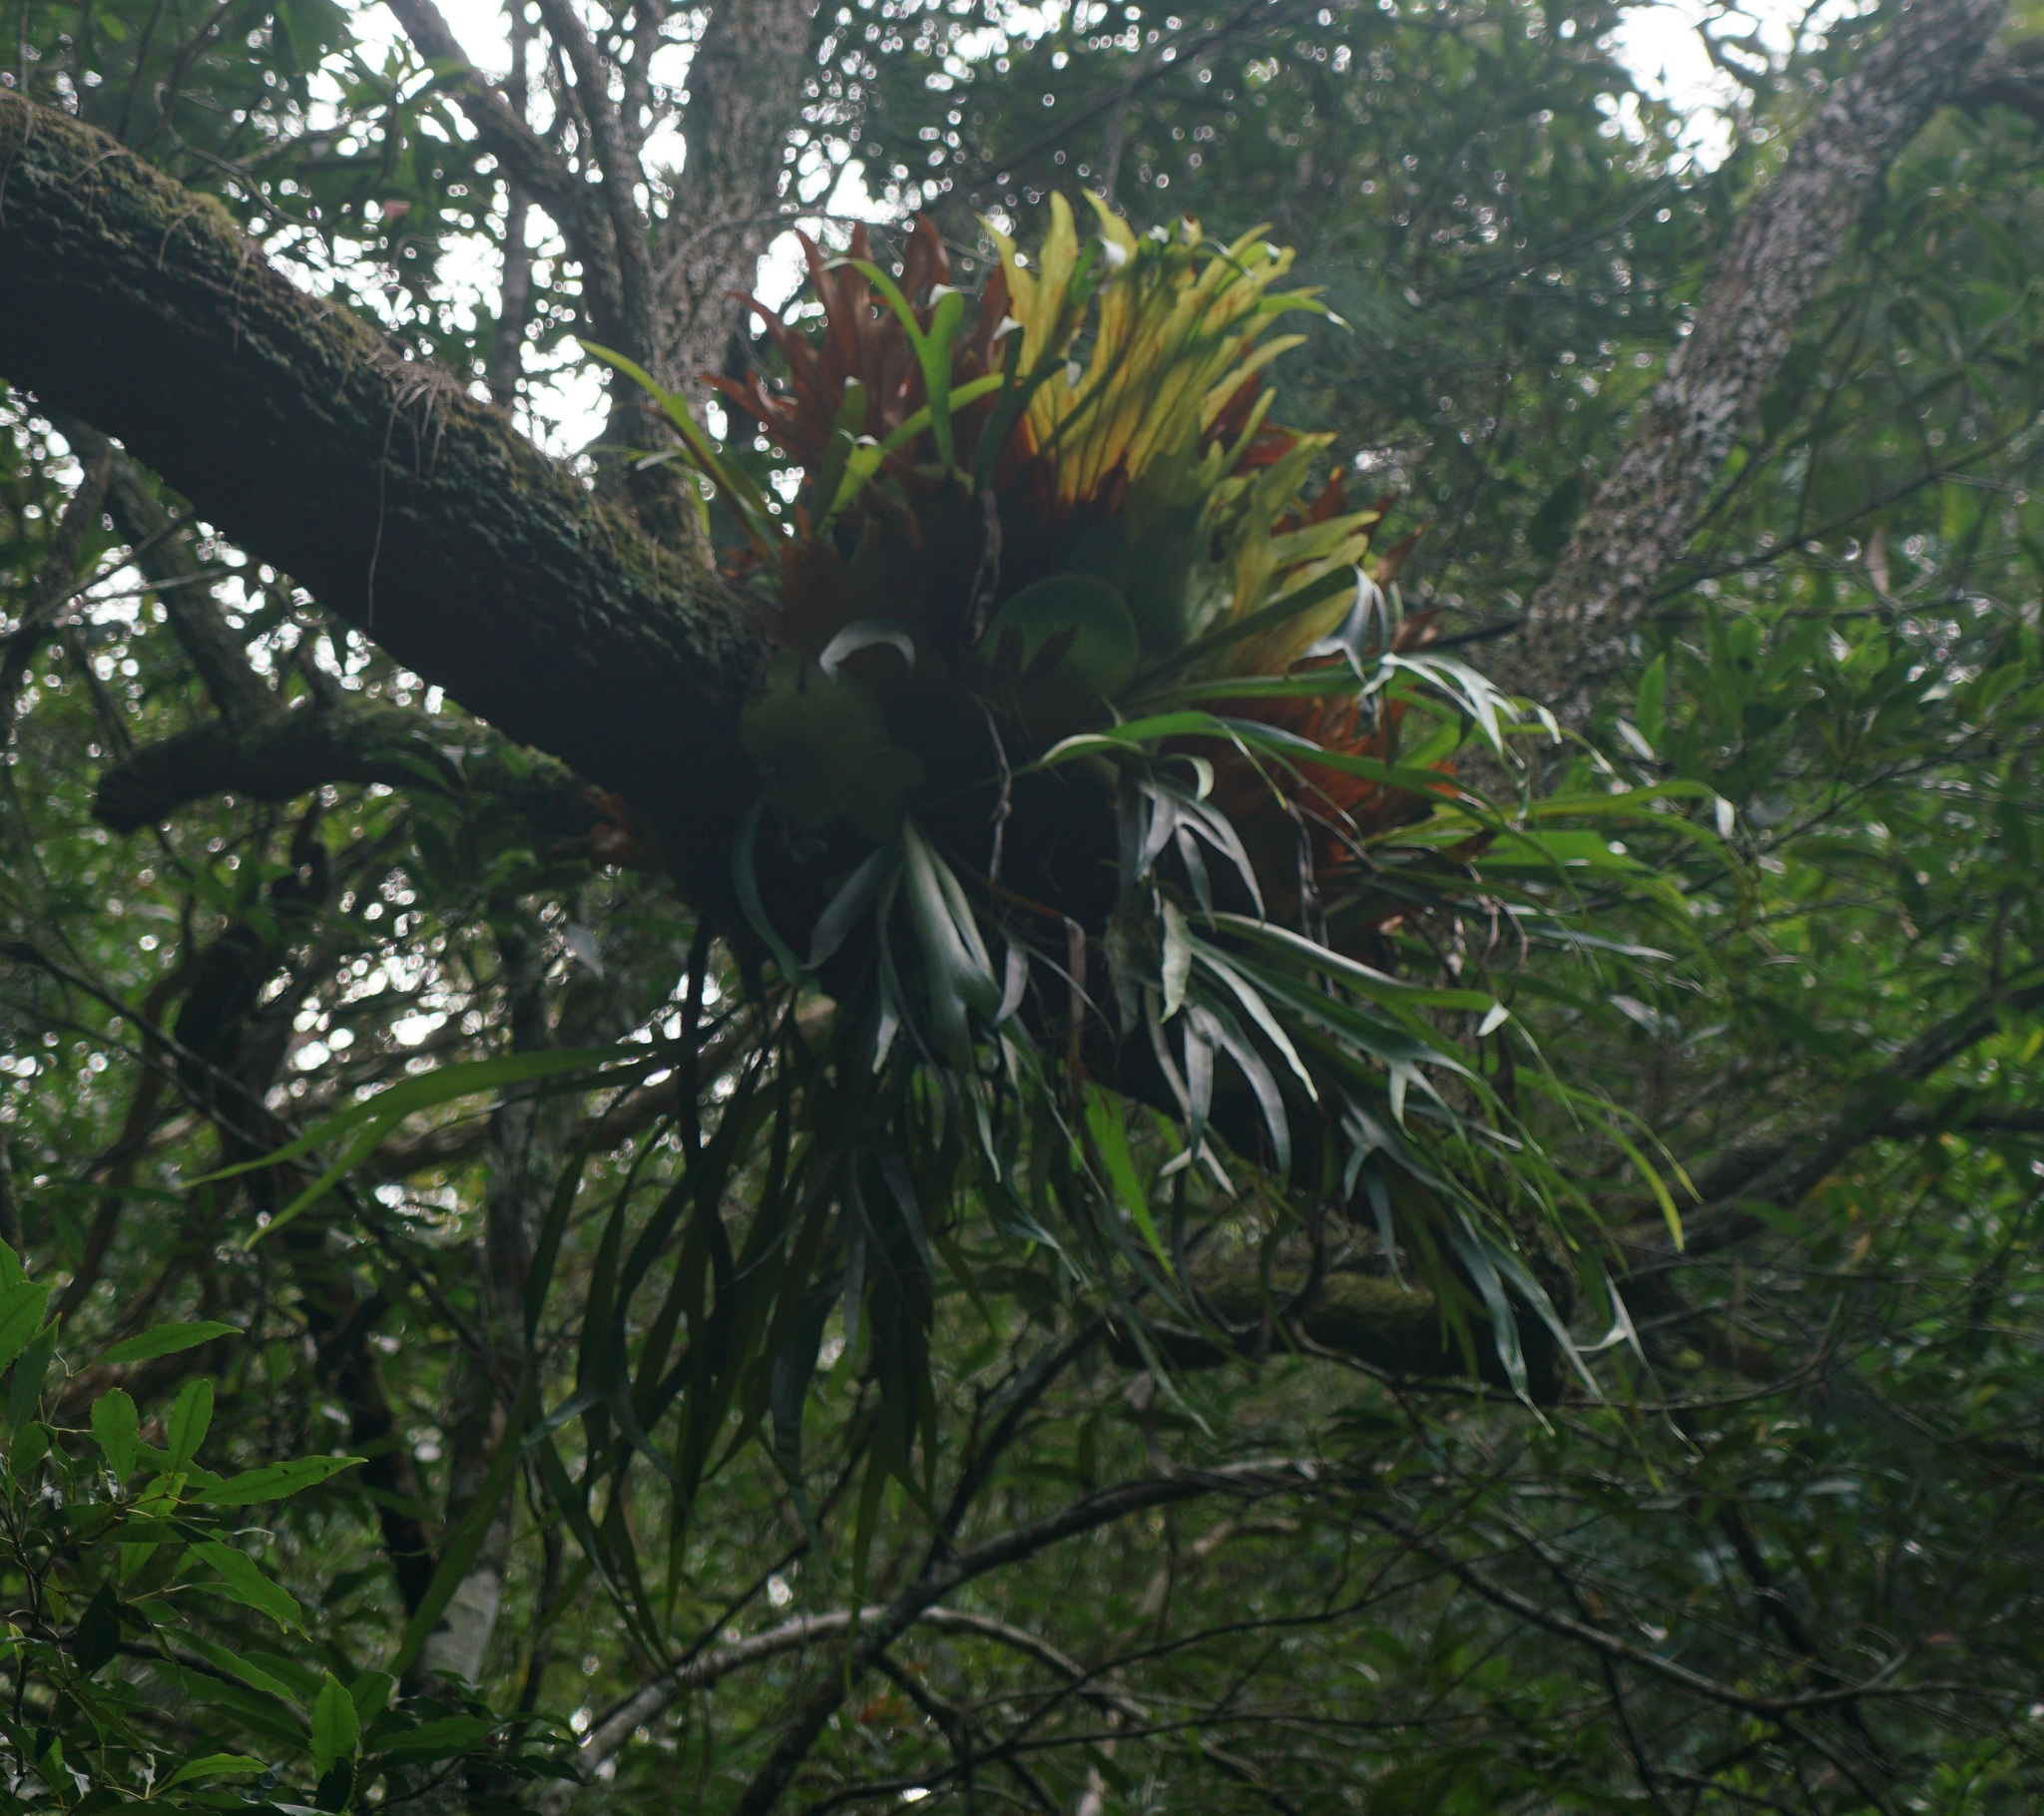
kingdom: Plantae
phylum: Tracheophyta
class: Polypodiopsida
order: Polypodiales
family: Polypodiaceae
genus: Platycerium
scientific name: Platycerium bifurcatum
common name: Elkhorn fern
